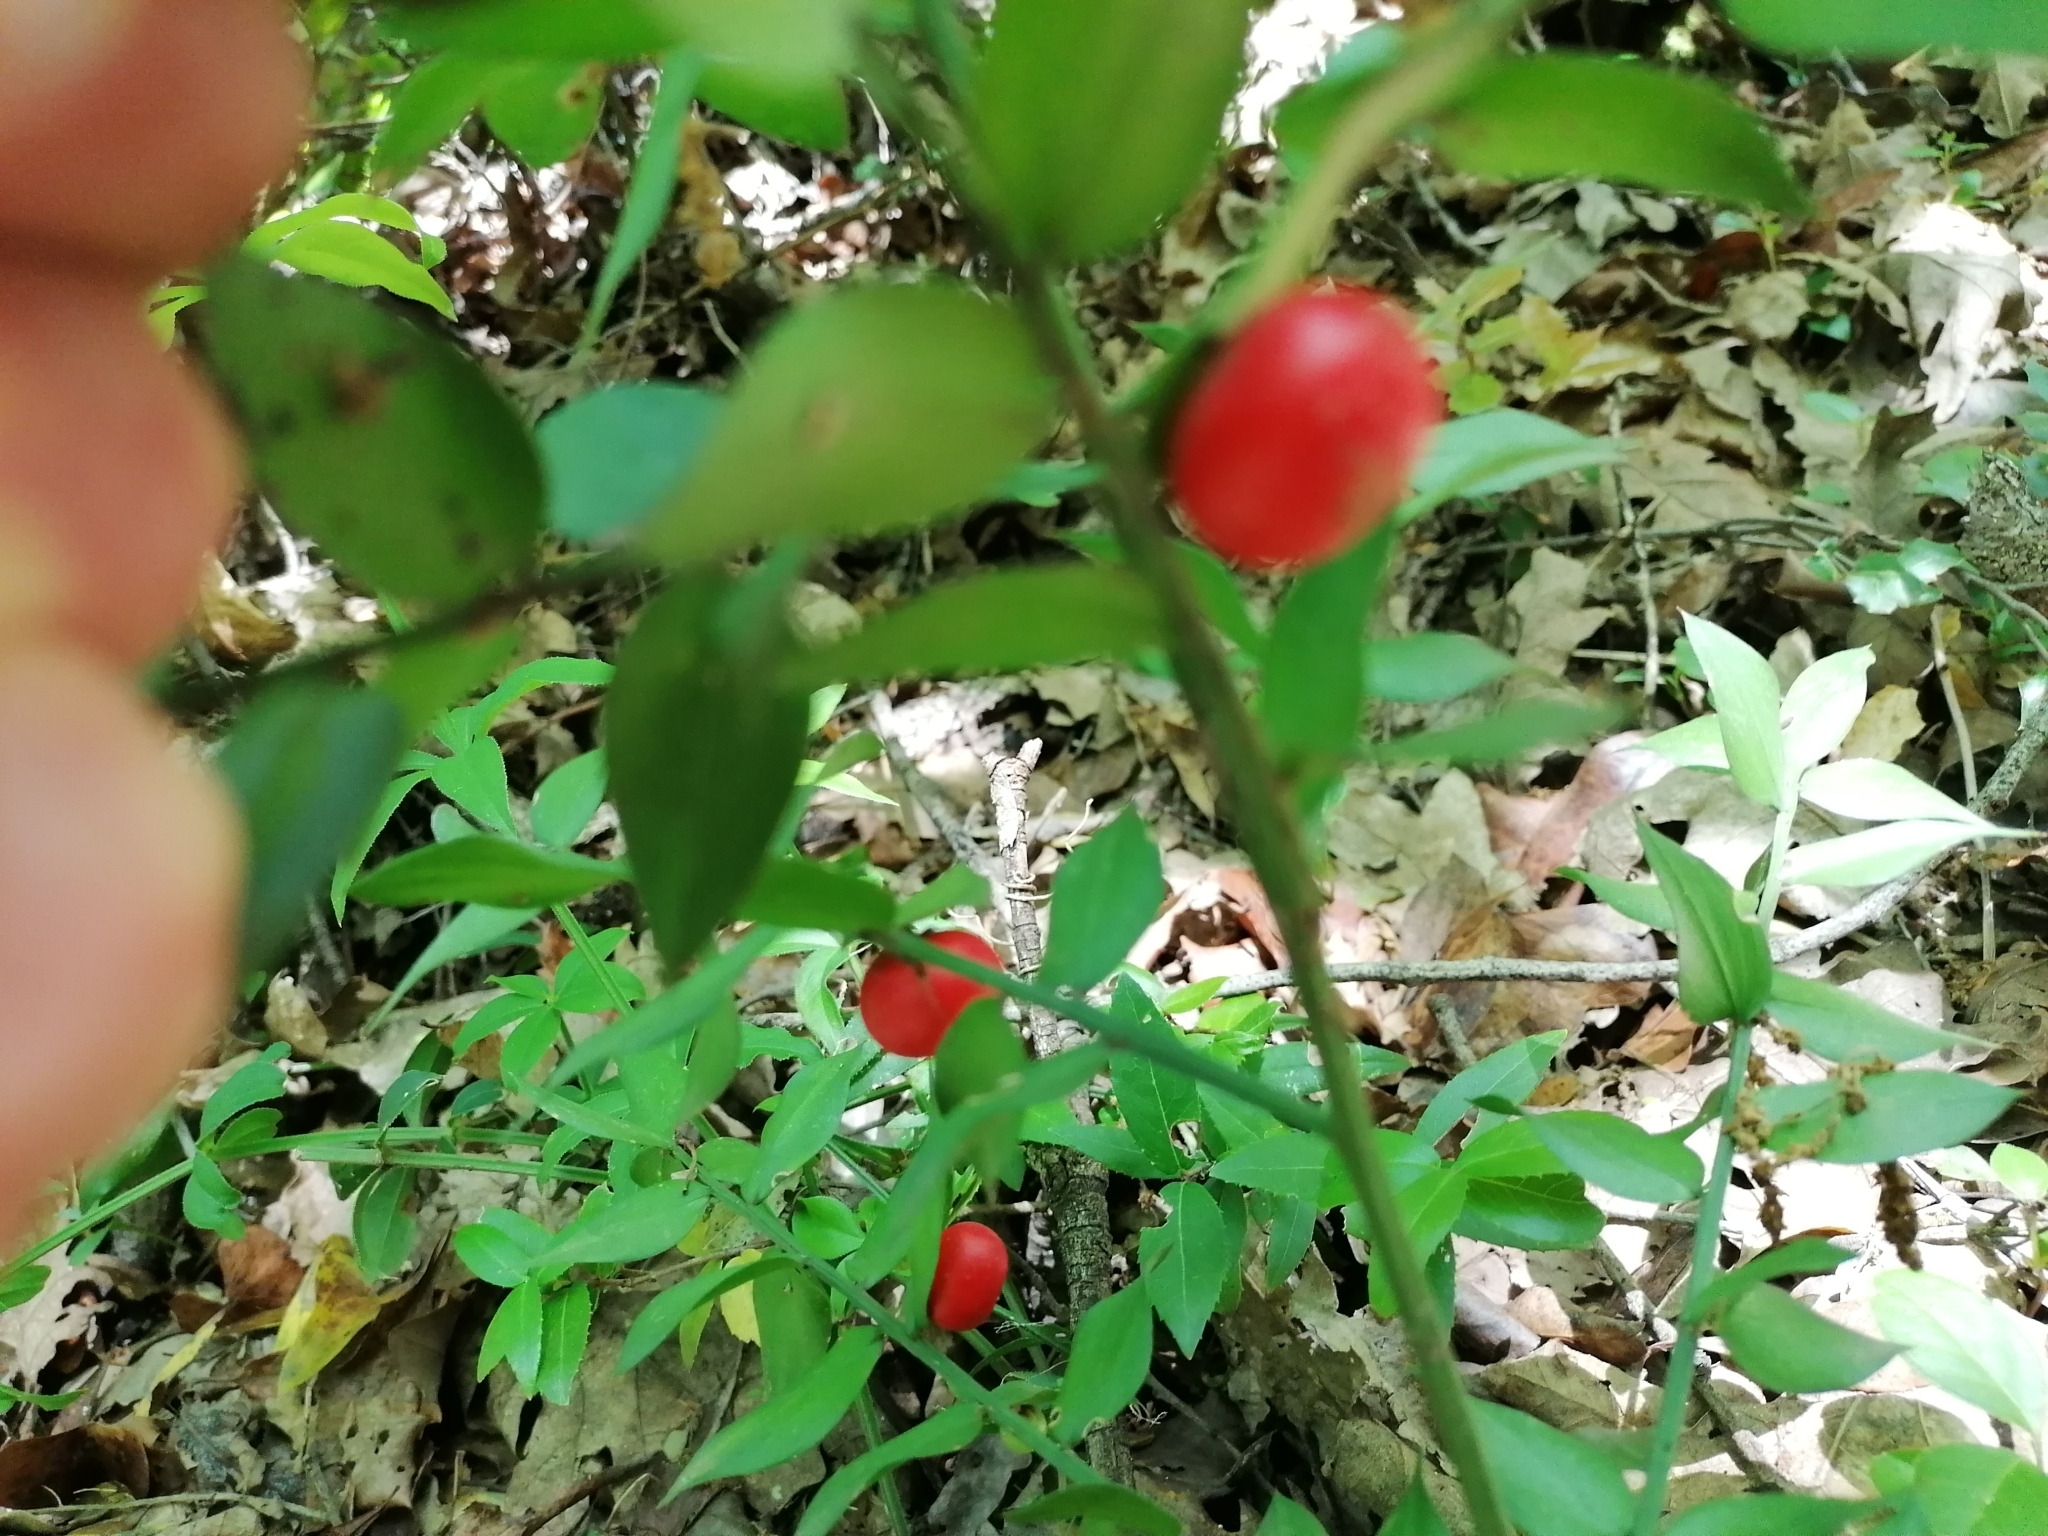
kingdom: Plantae
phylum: Tracheophyta
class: Liliopsida
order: Asparagales
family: Asparagaceae
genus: Ruscus
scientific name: Ruscus aculeatus
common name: Butcher's-broom
